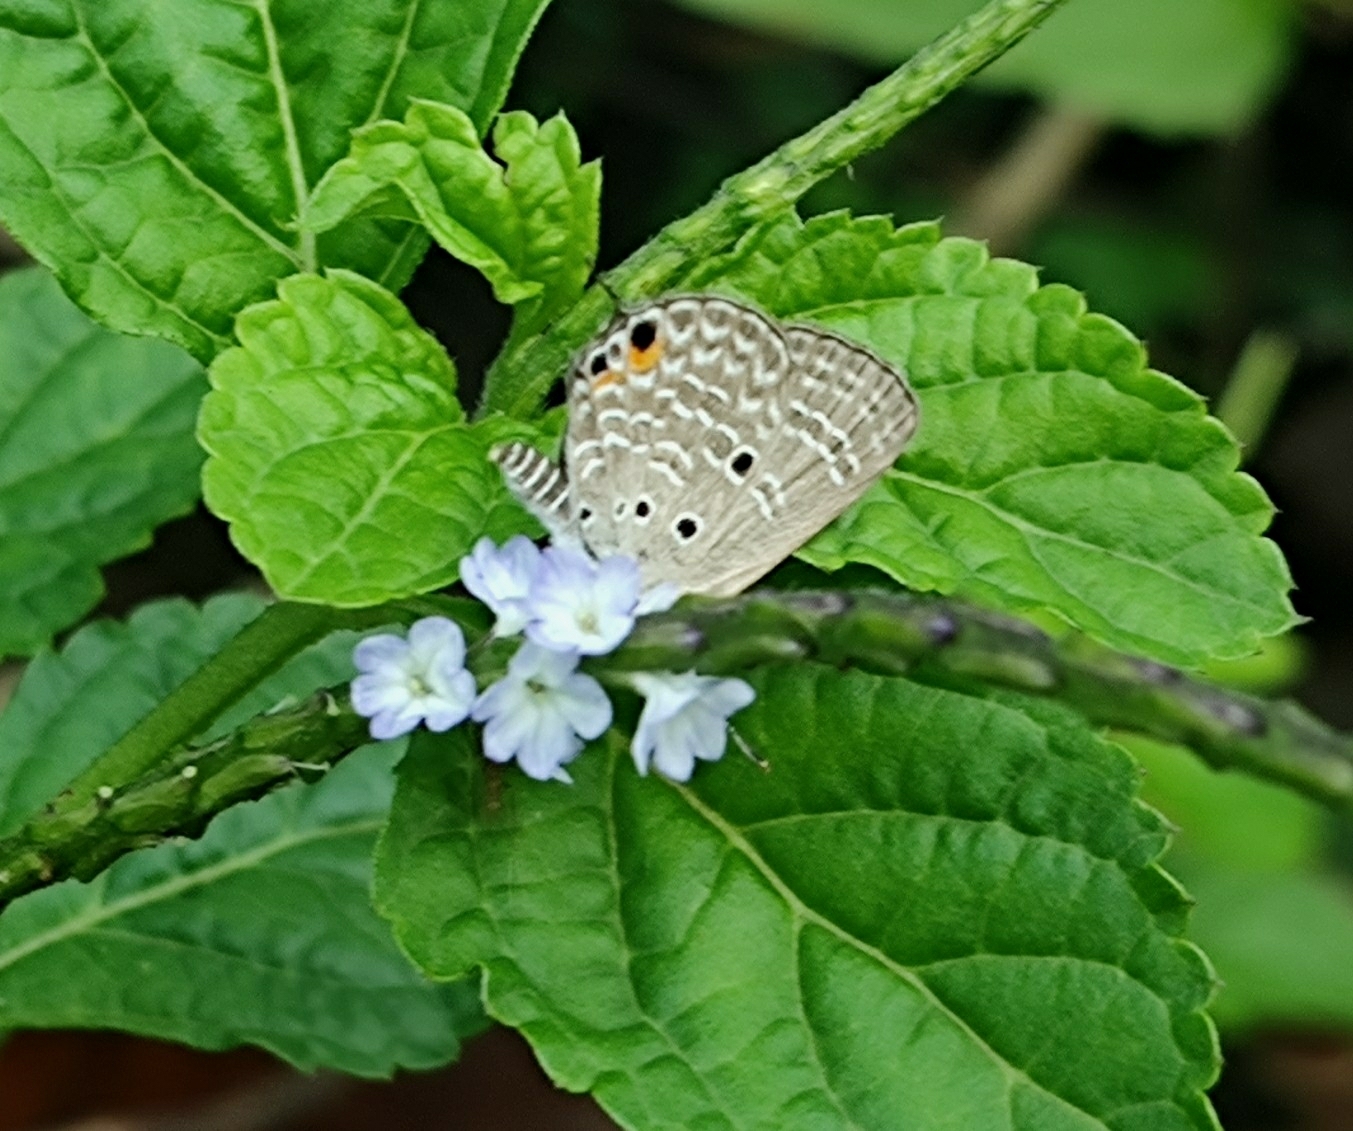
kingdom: Animalia
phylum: Arthropoda
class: Insecta
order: Lepidoptera
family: Lycaenidae
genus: Luthrodes
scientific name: Luthrodes pandava
